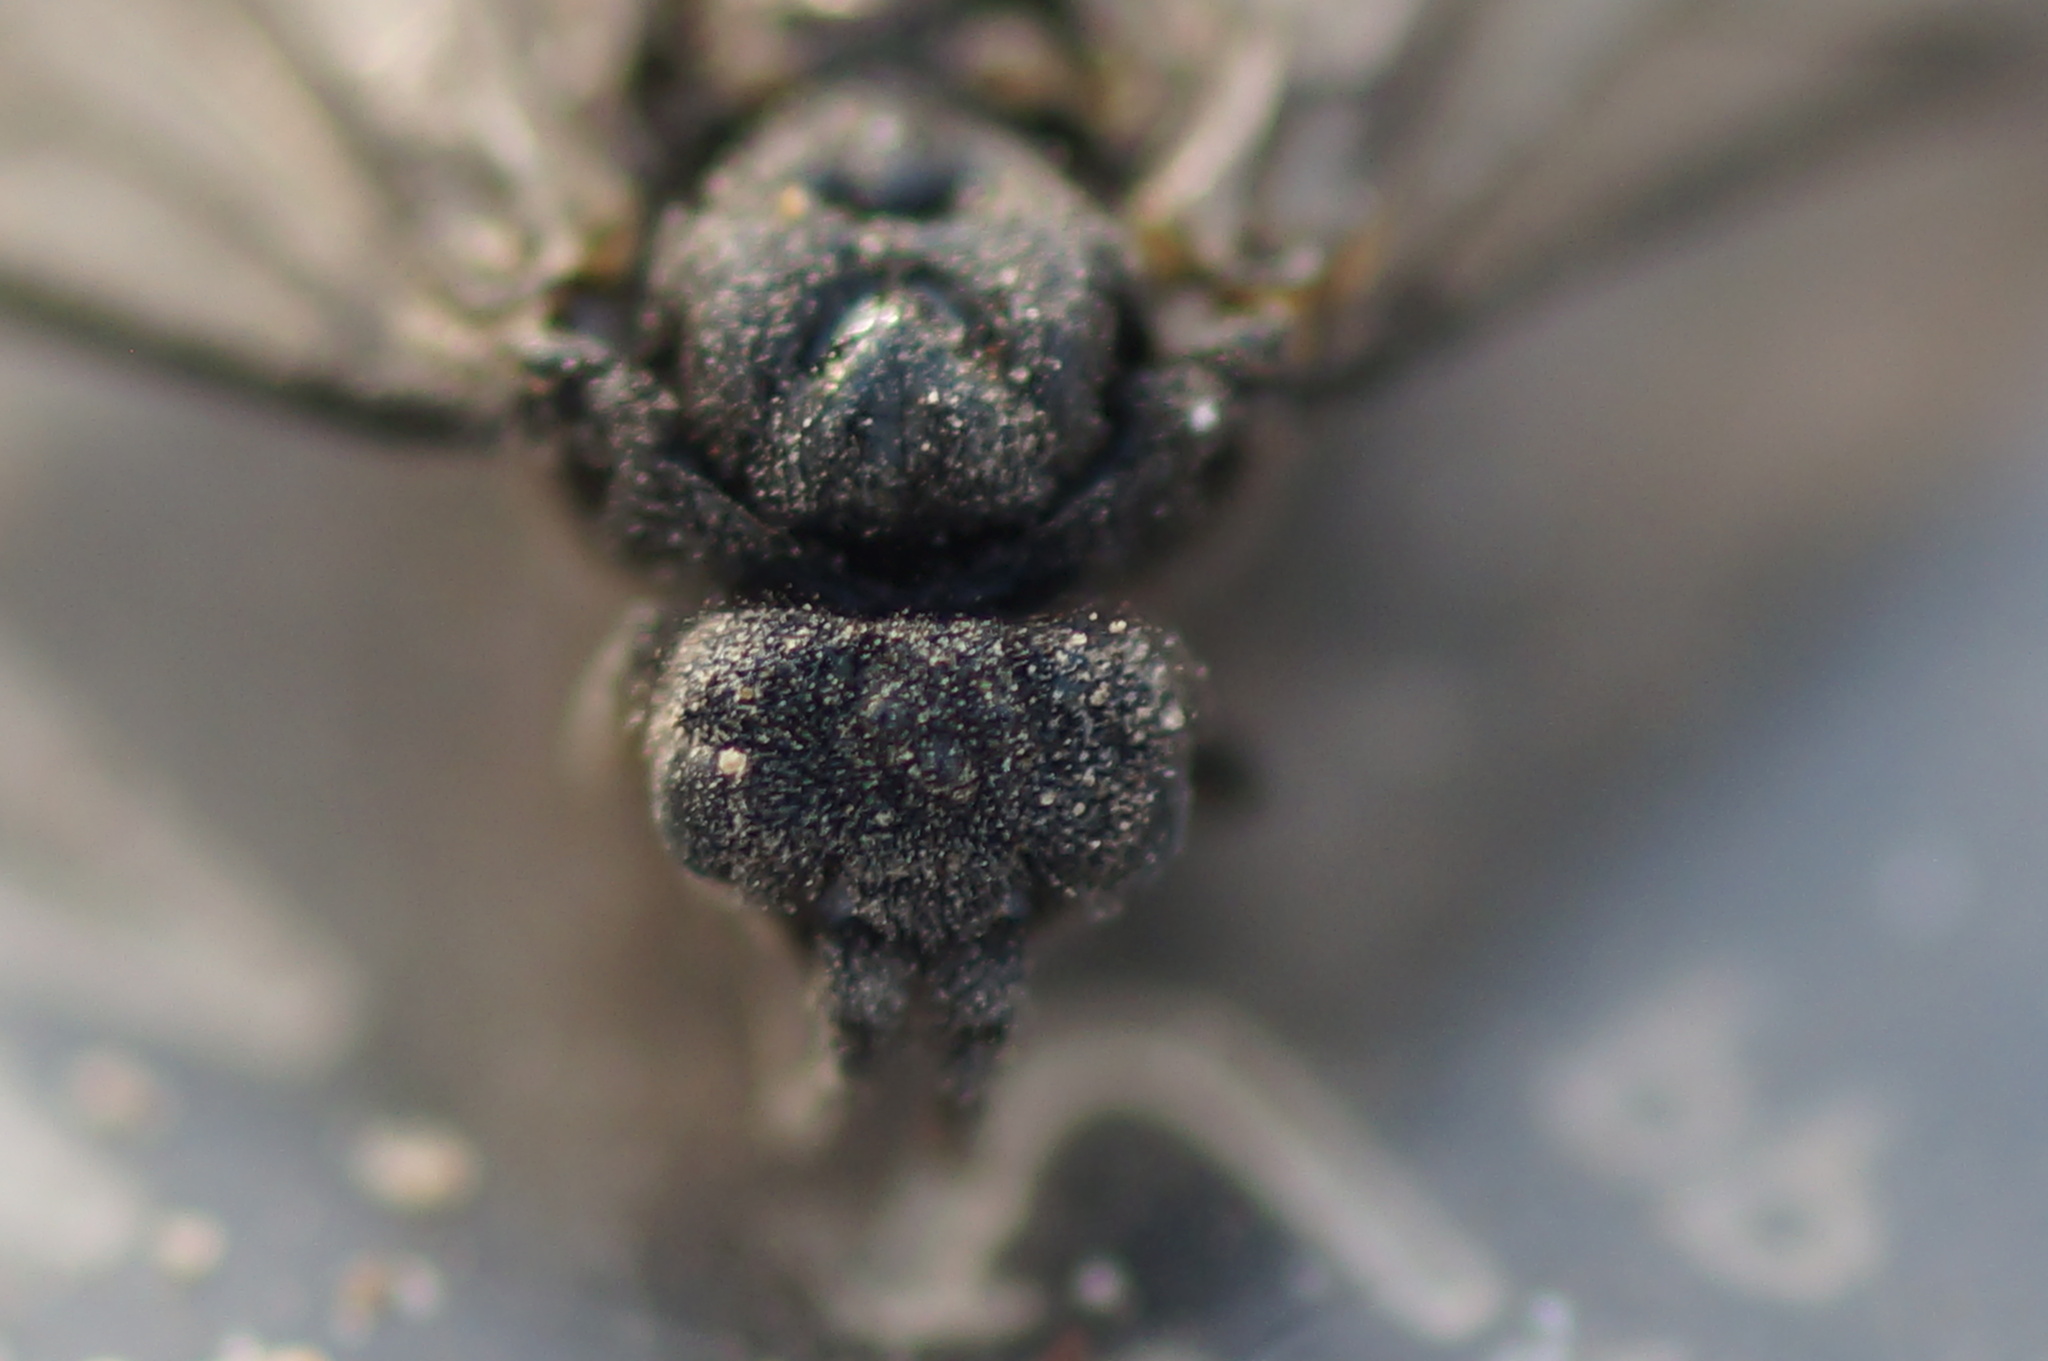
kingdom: Animalia
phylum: Arthropoda
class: Insecta
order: Hymenoptera
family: Tenthredinidae
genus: Dolerus
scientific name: Dolerus
